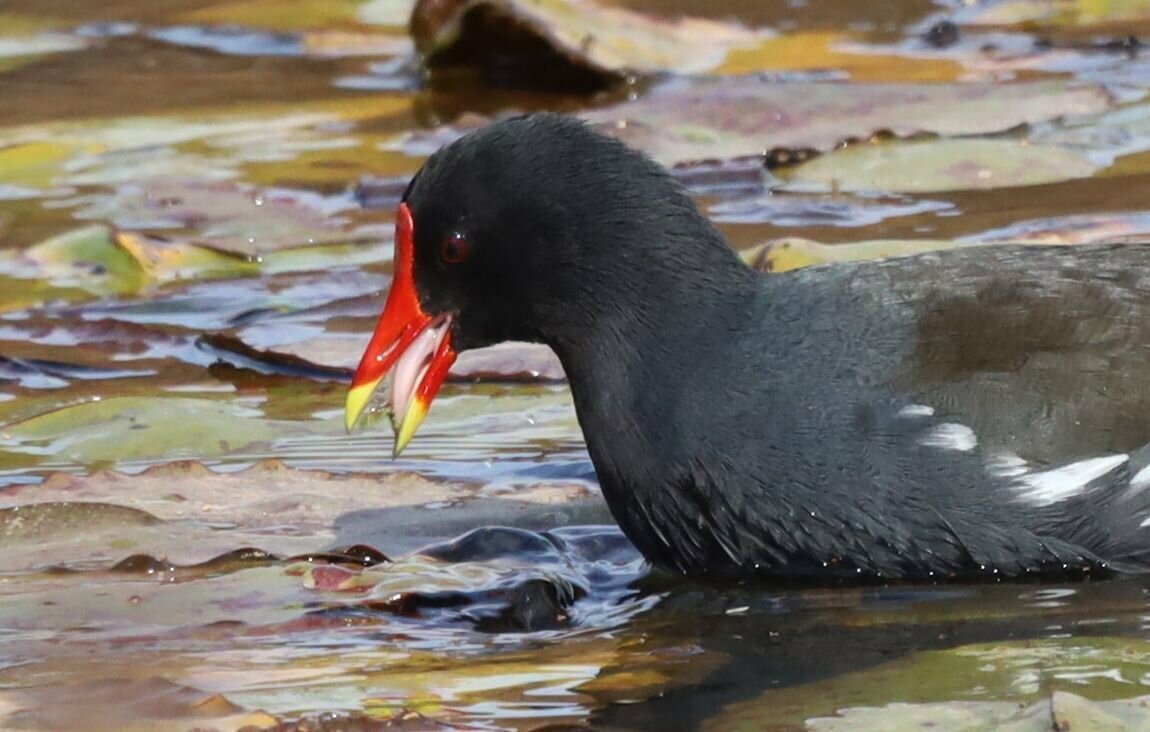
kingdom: Animalia
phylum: Chordata
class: Aves
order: Gruiformes
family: Rallidae
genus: Gallinula
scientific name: Gallinula chloropus
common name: Common moorhen
